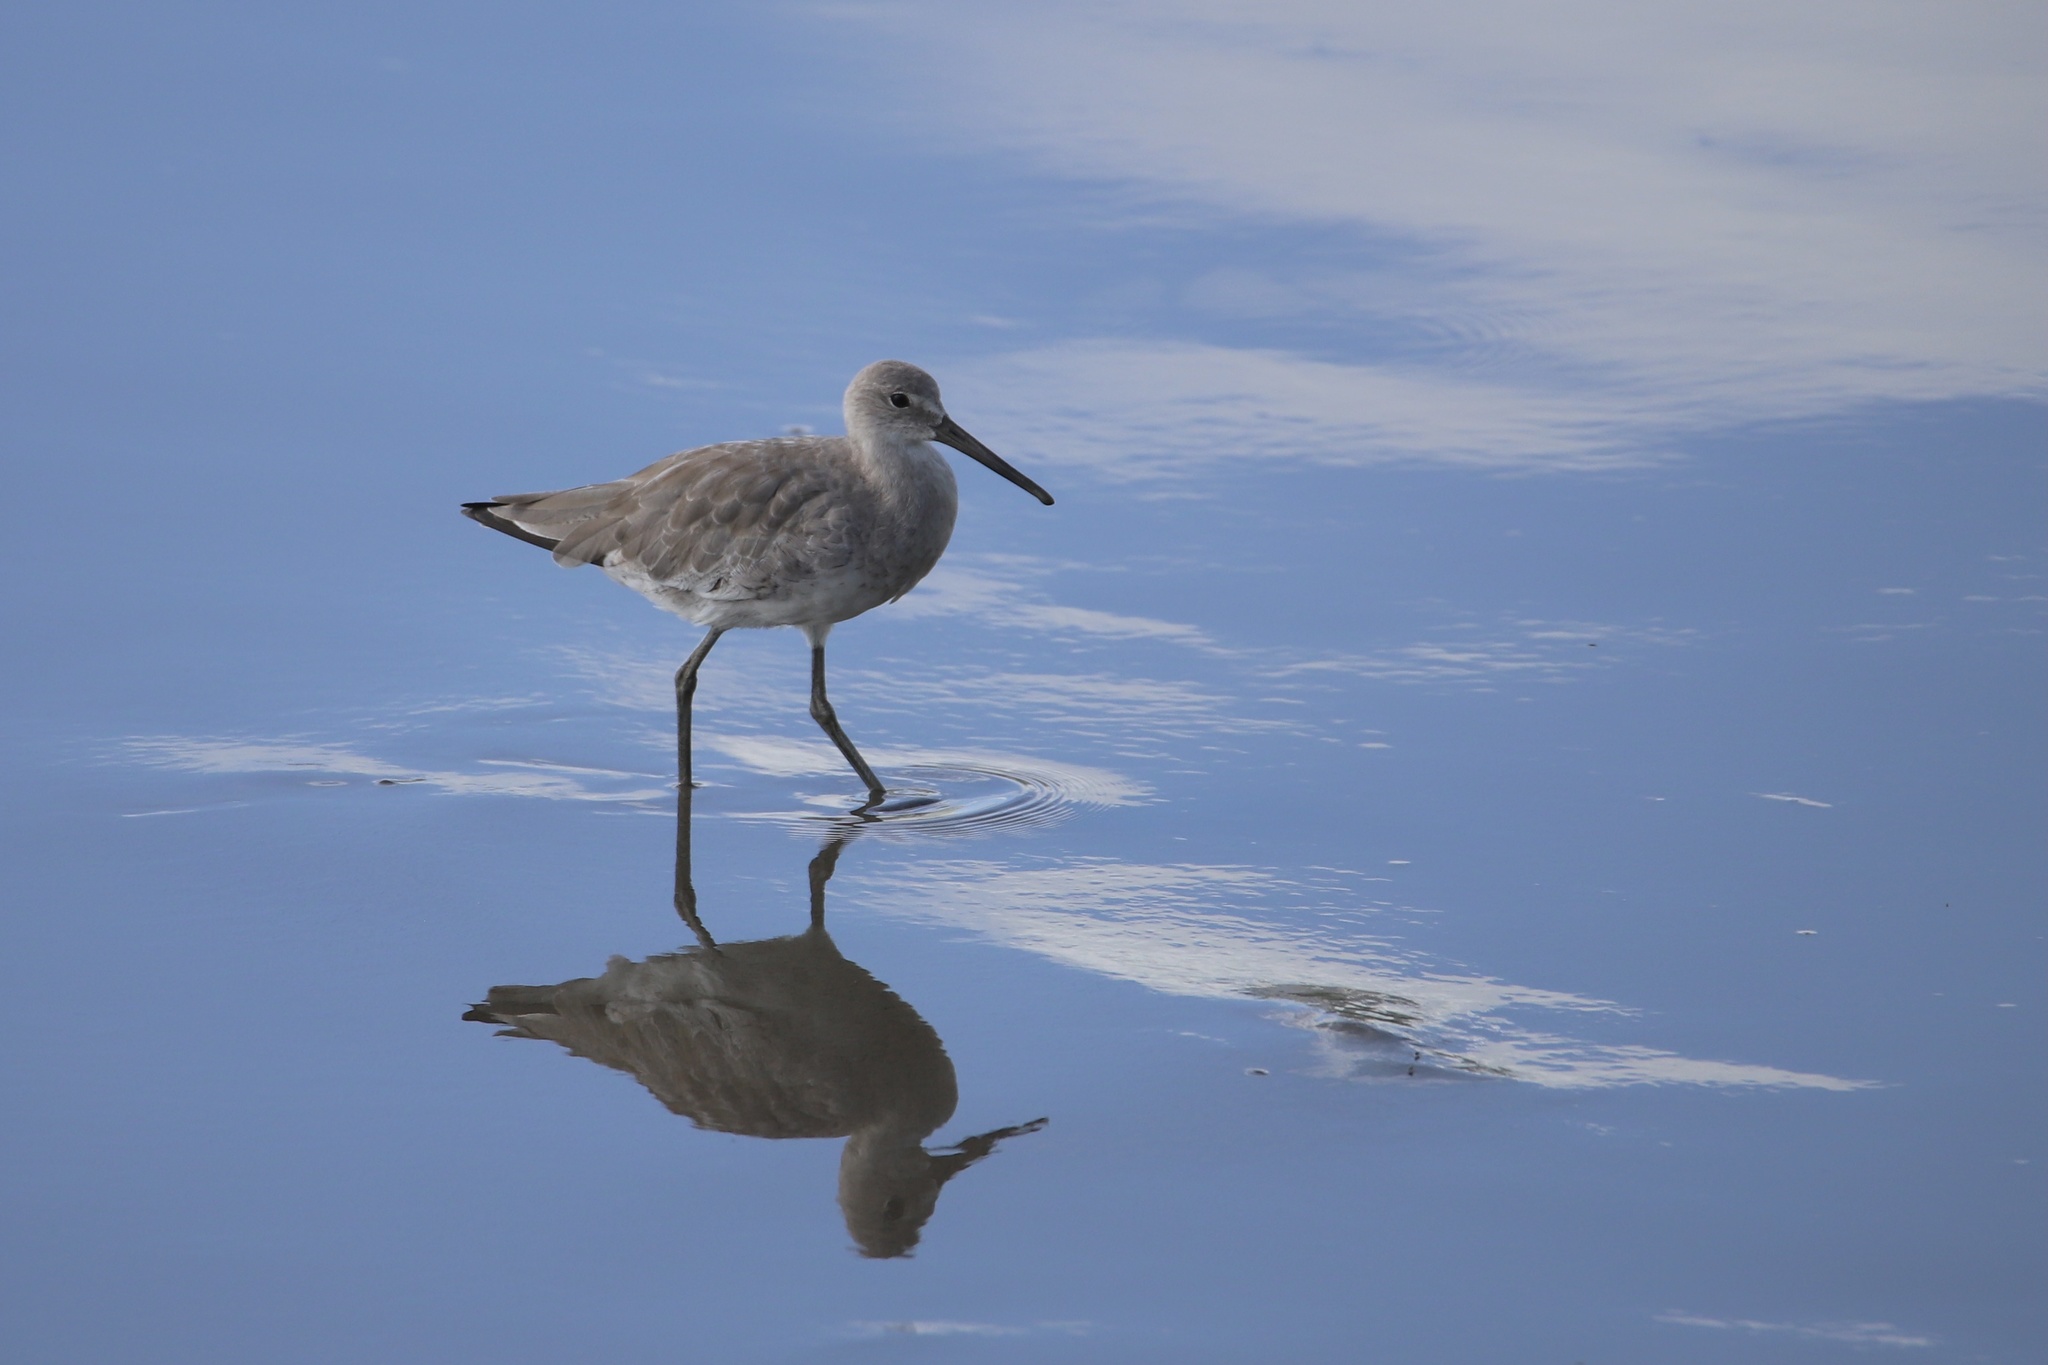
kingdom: Animalia
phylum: Chordata
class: Aves
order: Charadriiformes
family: Scolopacidae
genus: Tringa
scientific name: Tringa semipalmata
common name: Willet
